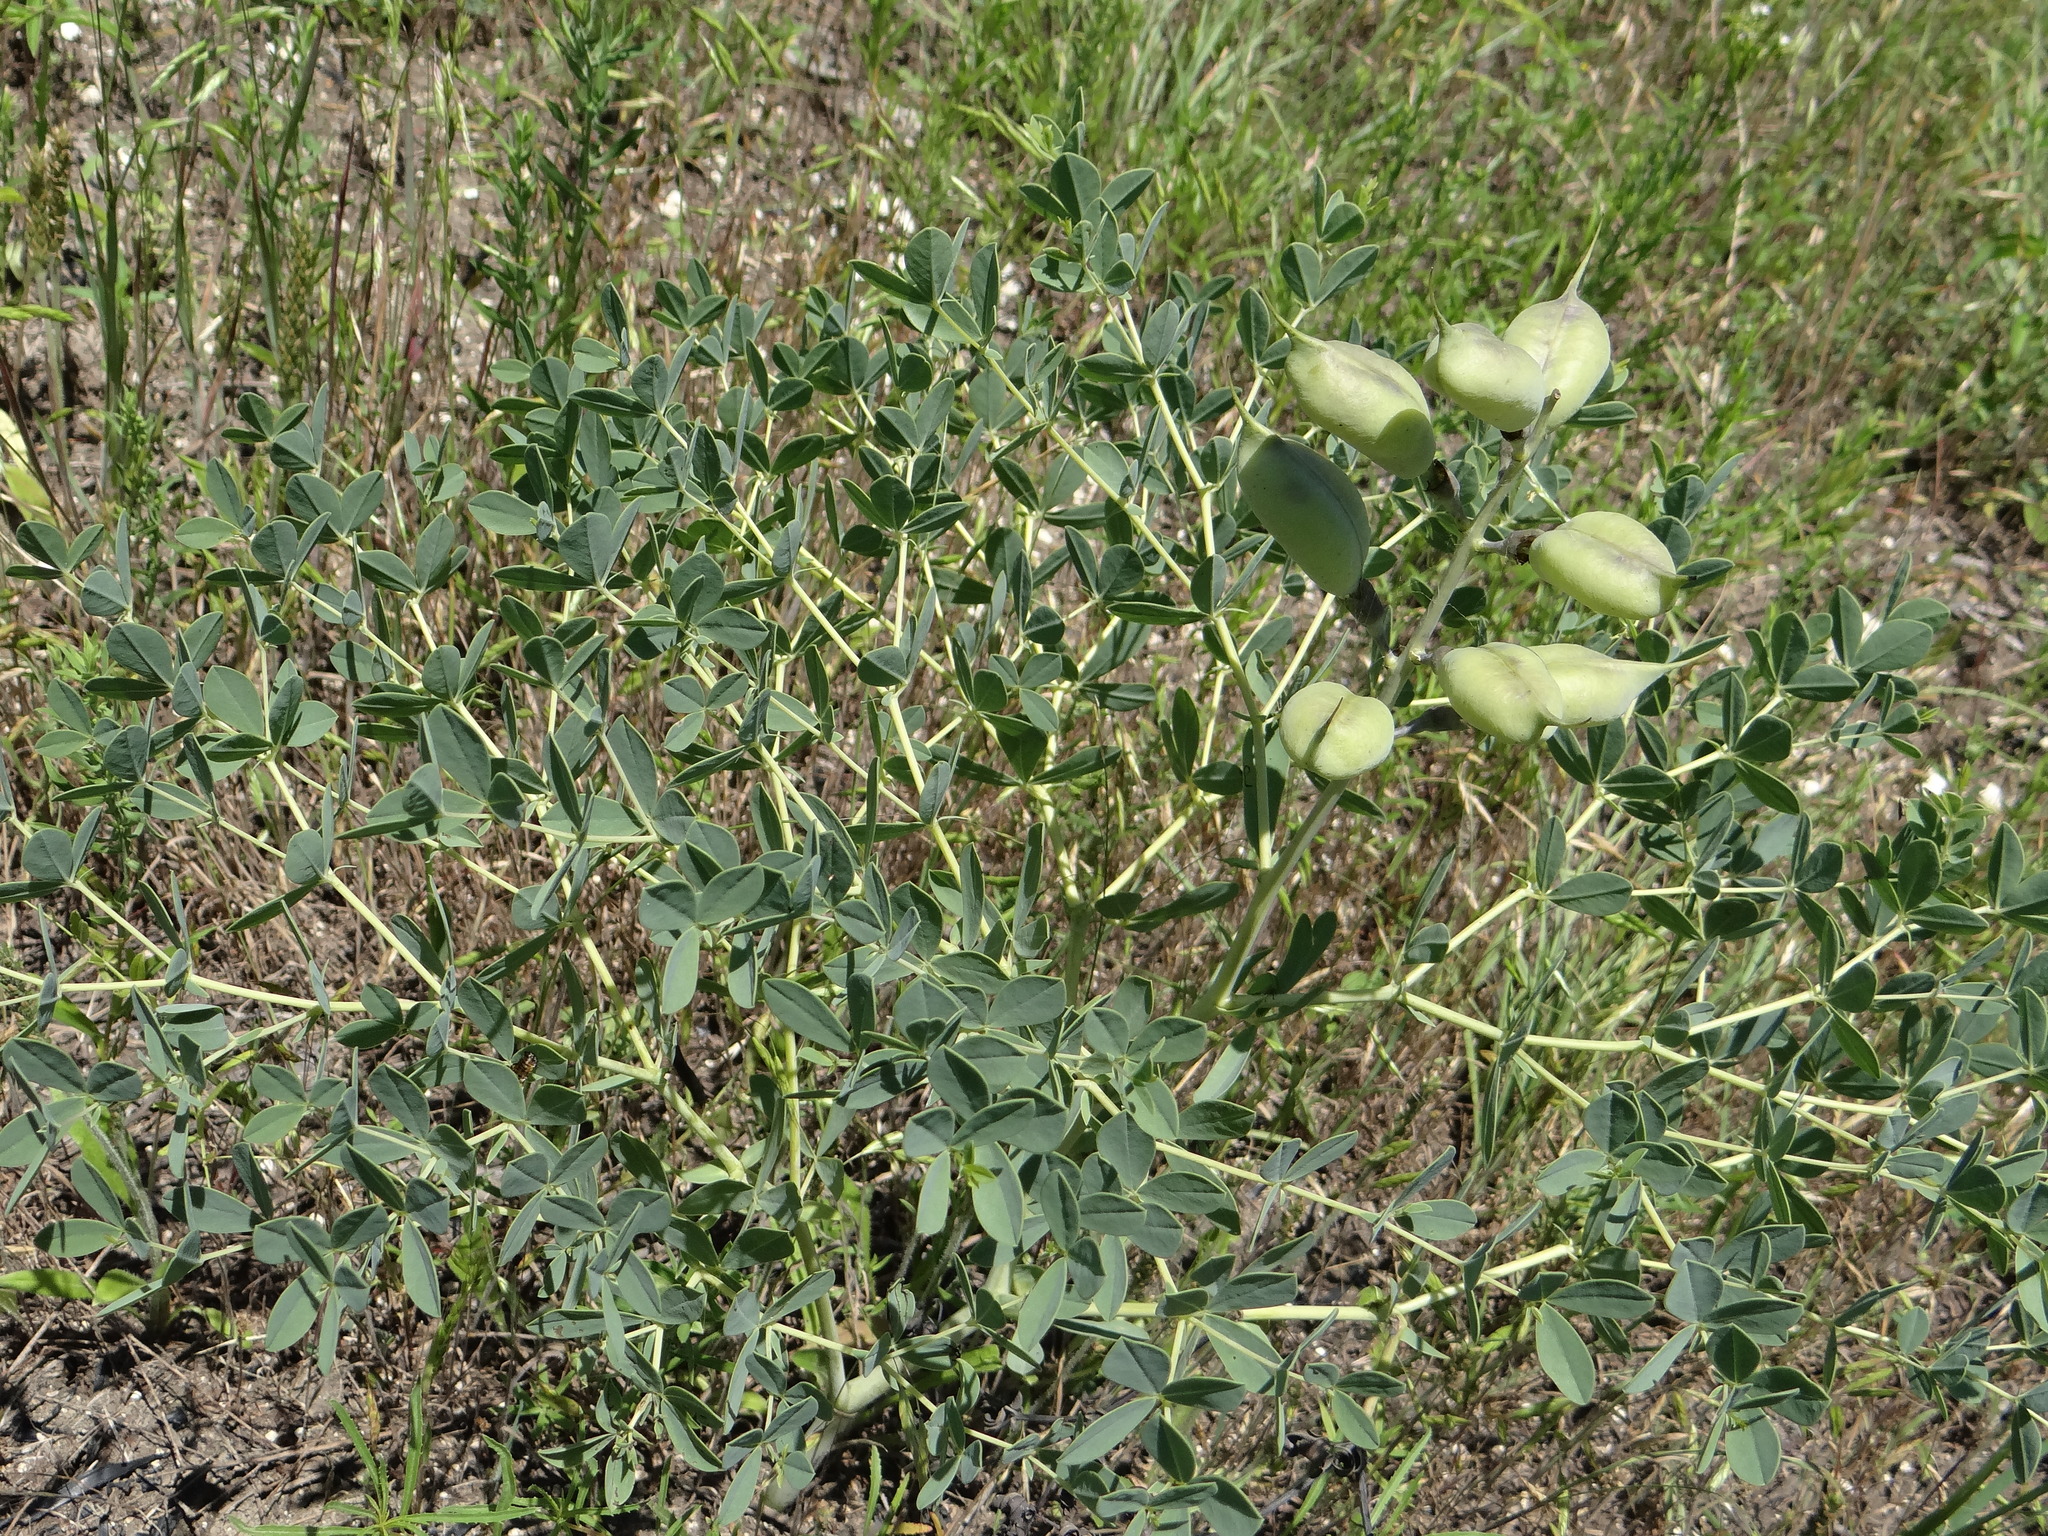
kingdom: Plantae
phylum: Tracheophyta
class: Magnoliopsida
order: Fabales
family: Fabaceae
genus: Baptisia
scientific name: Baptisia australis
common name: Blue false indigo
